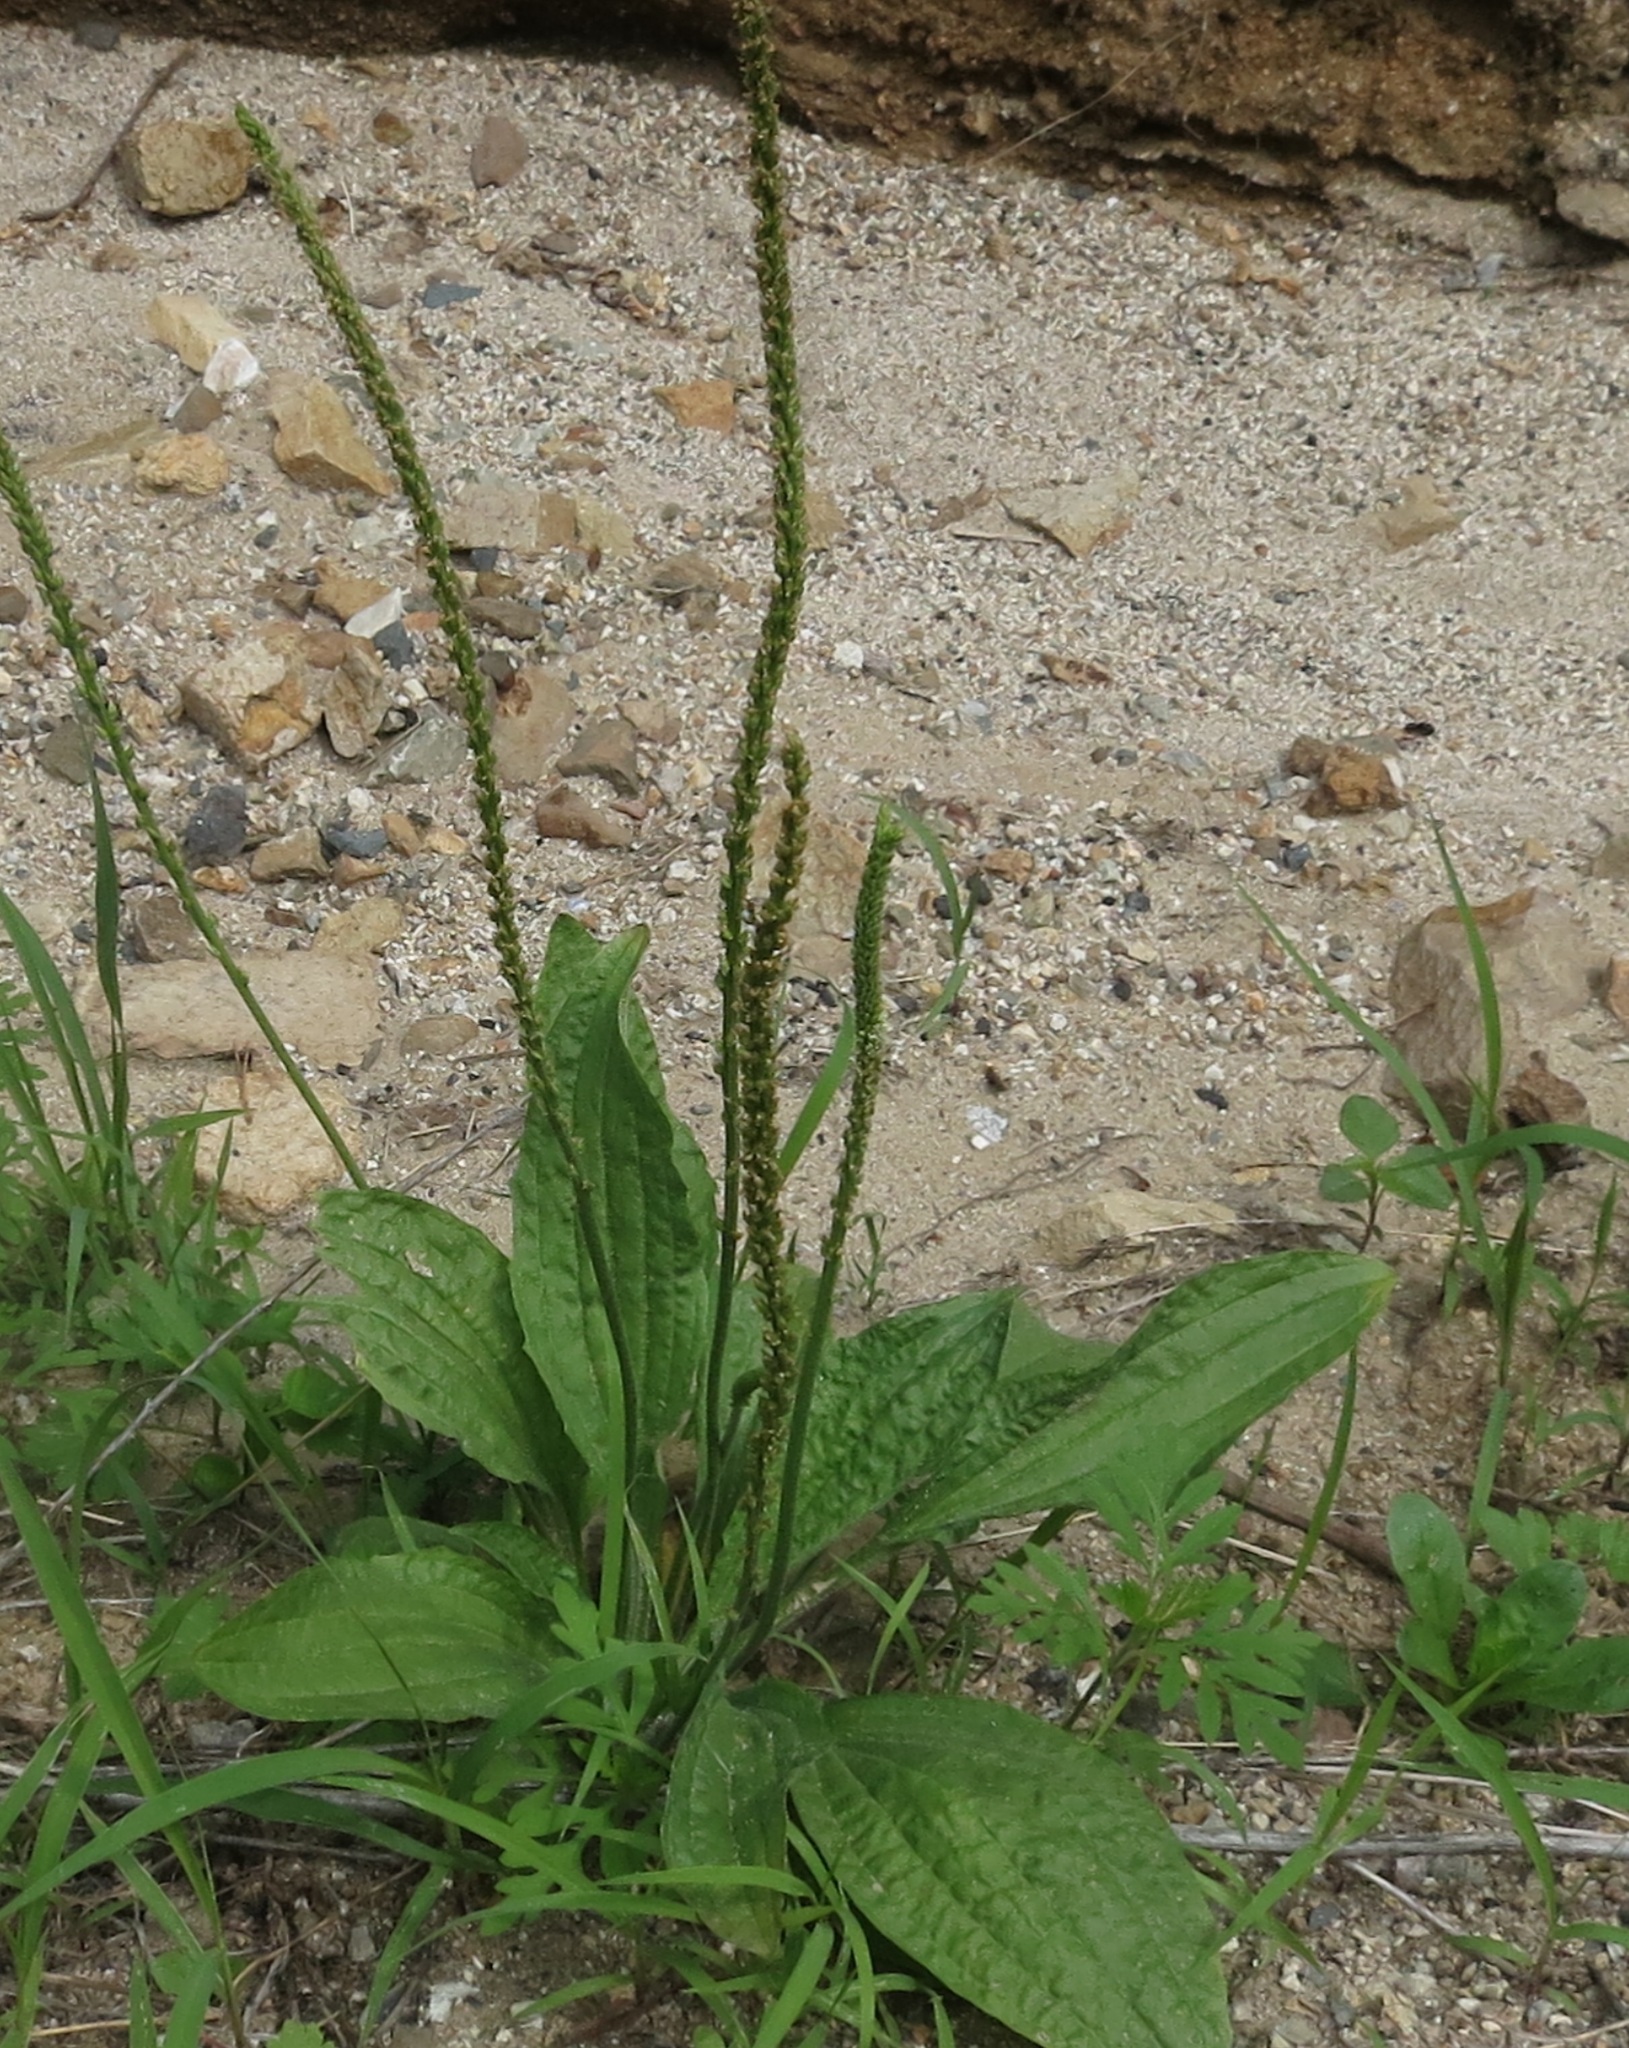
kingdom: Plantae
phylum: Tracheophyta
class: Magnoliopsida
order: Lamiales
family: Plantaginaceae
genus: Plantago
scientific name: Plantago major
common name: Common plantain
